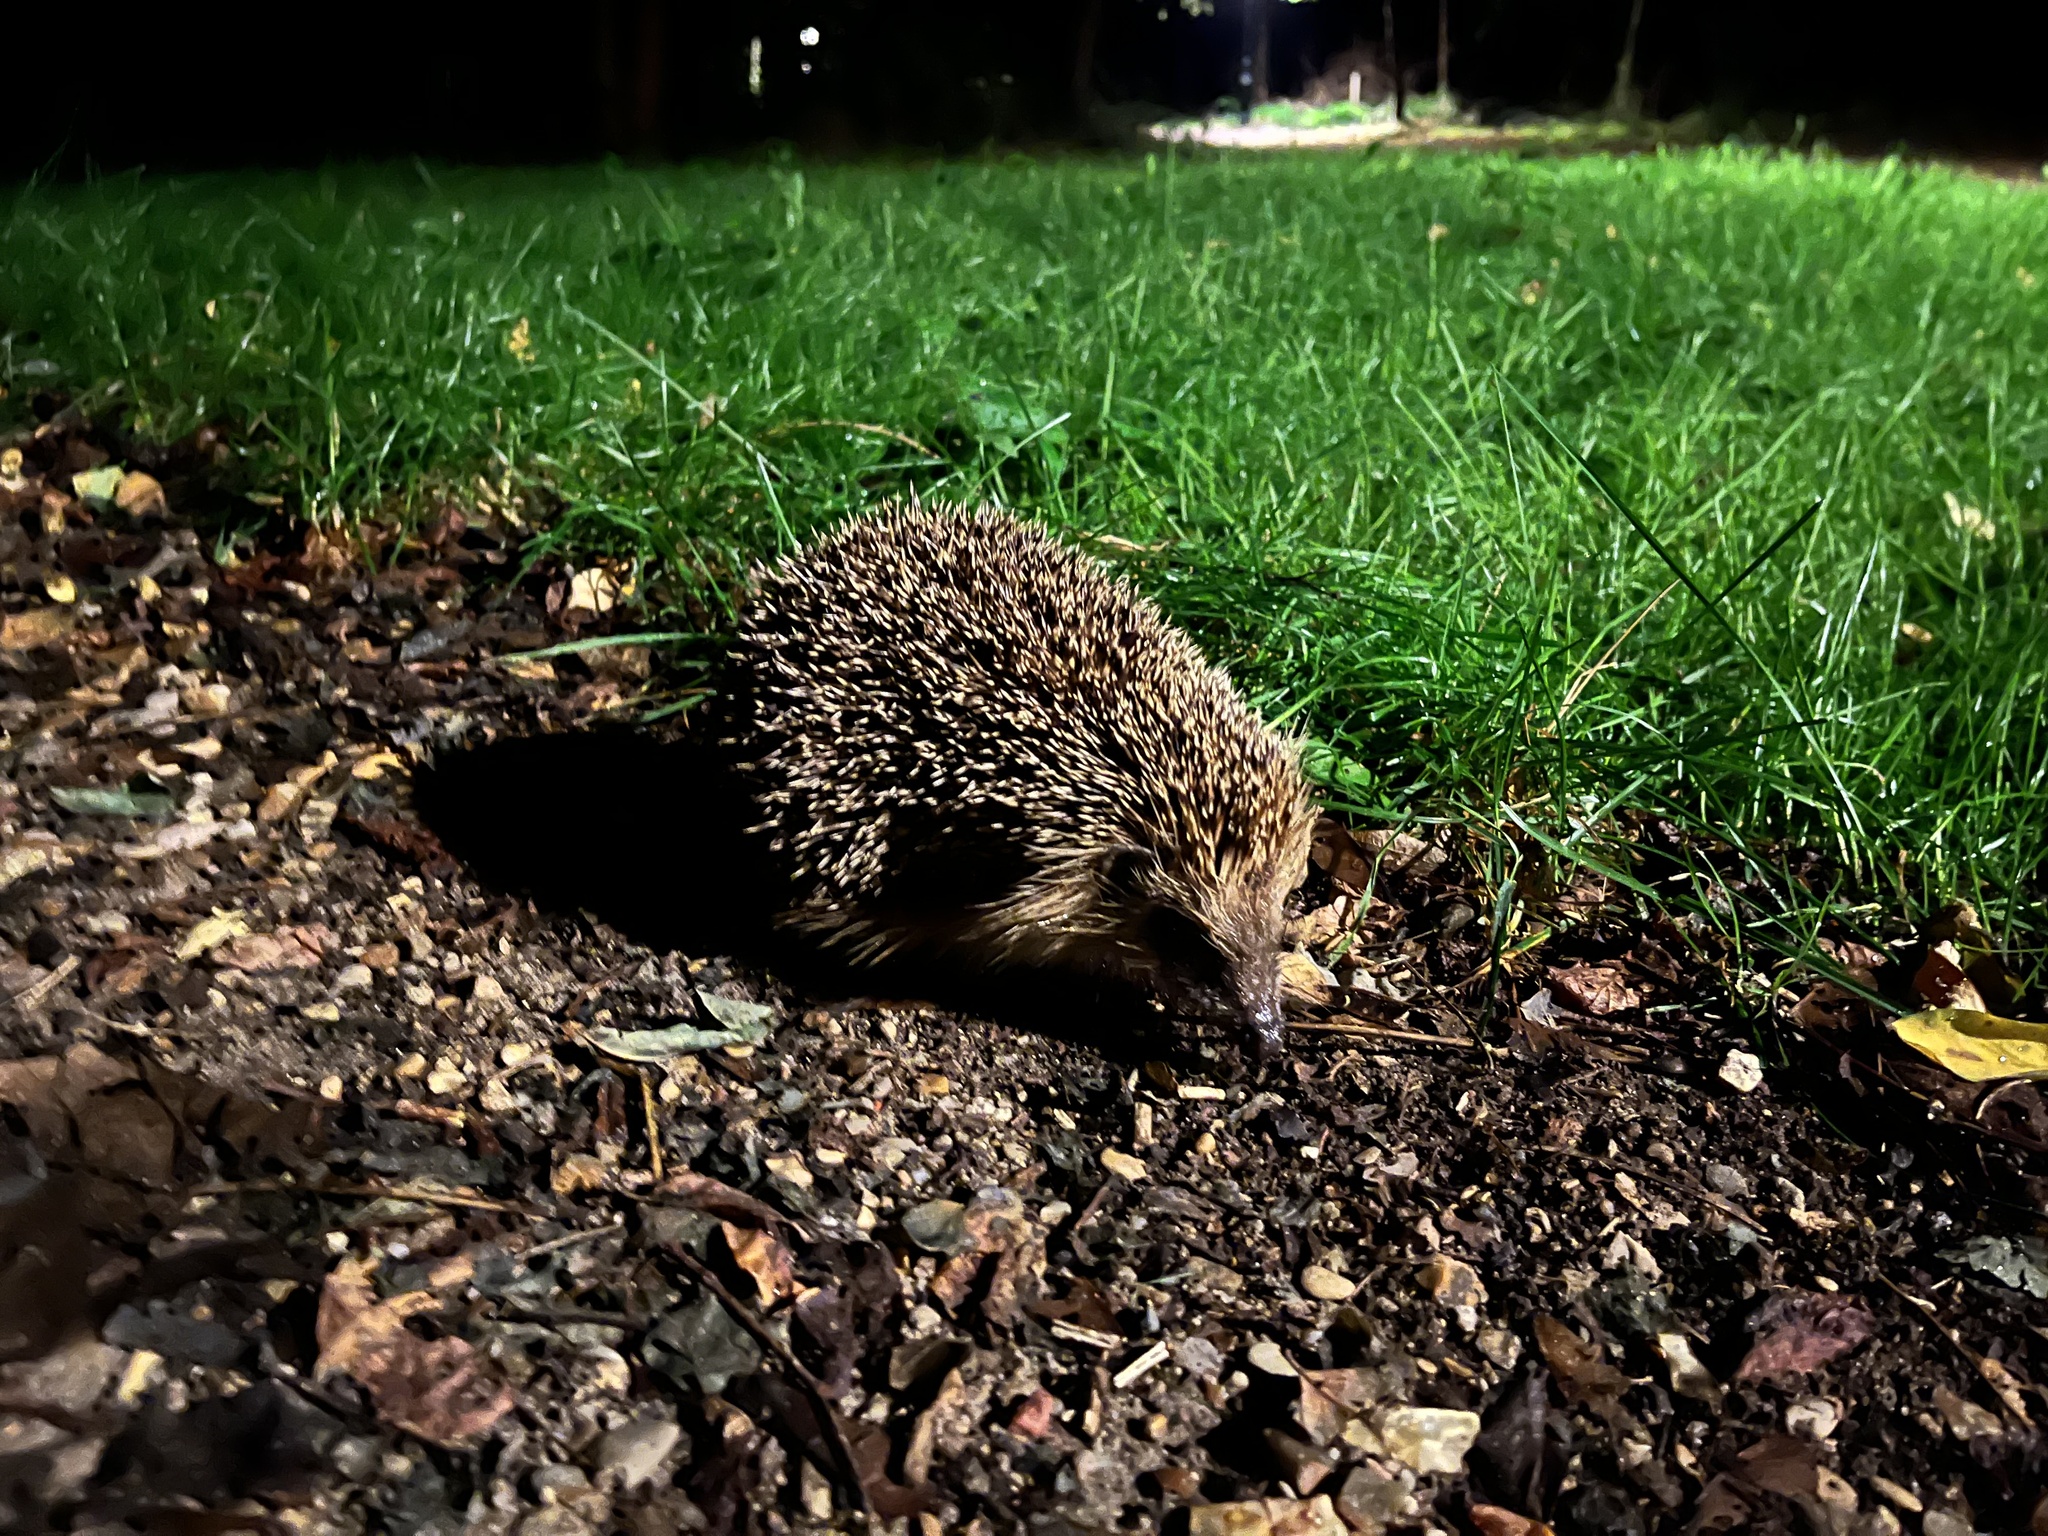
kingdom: Animalia
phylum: Chordata
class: Mammalia
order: Erinaceomorpha
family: Erinaceidae
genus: Erinaceus
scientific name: Erinaceus europaeus
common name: West european hedgehog
